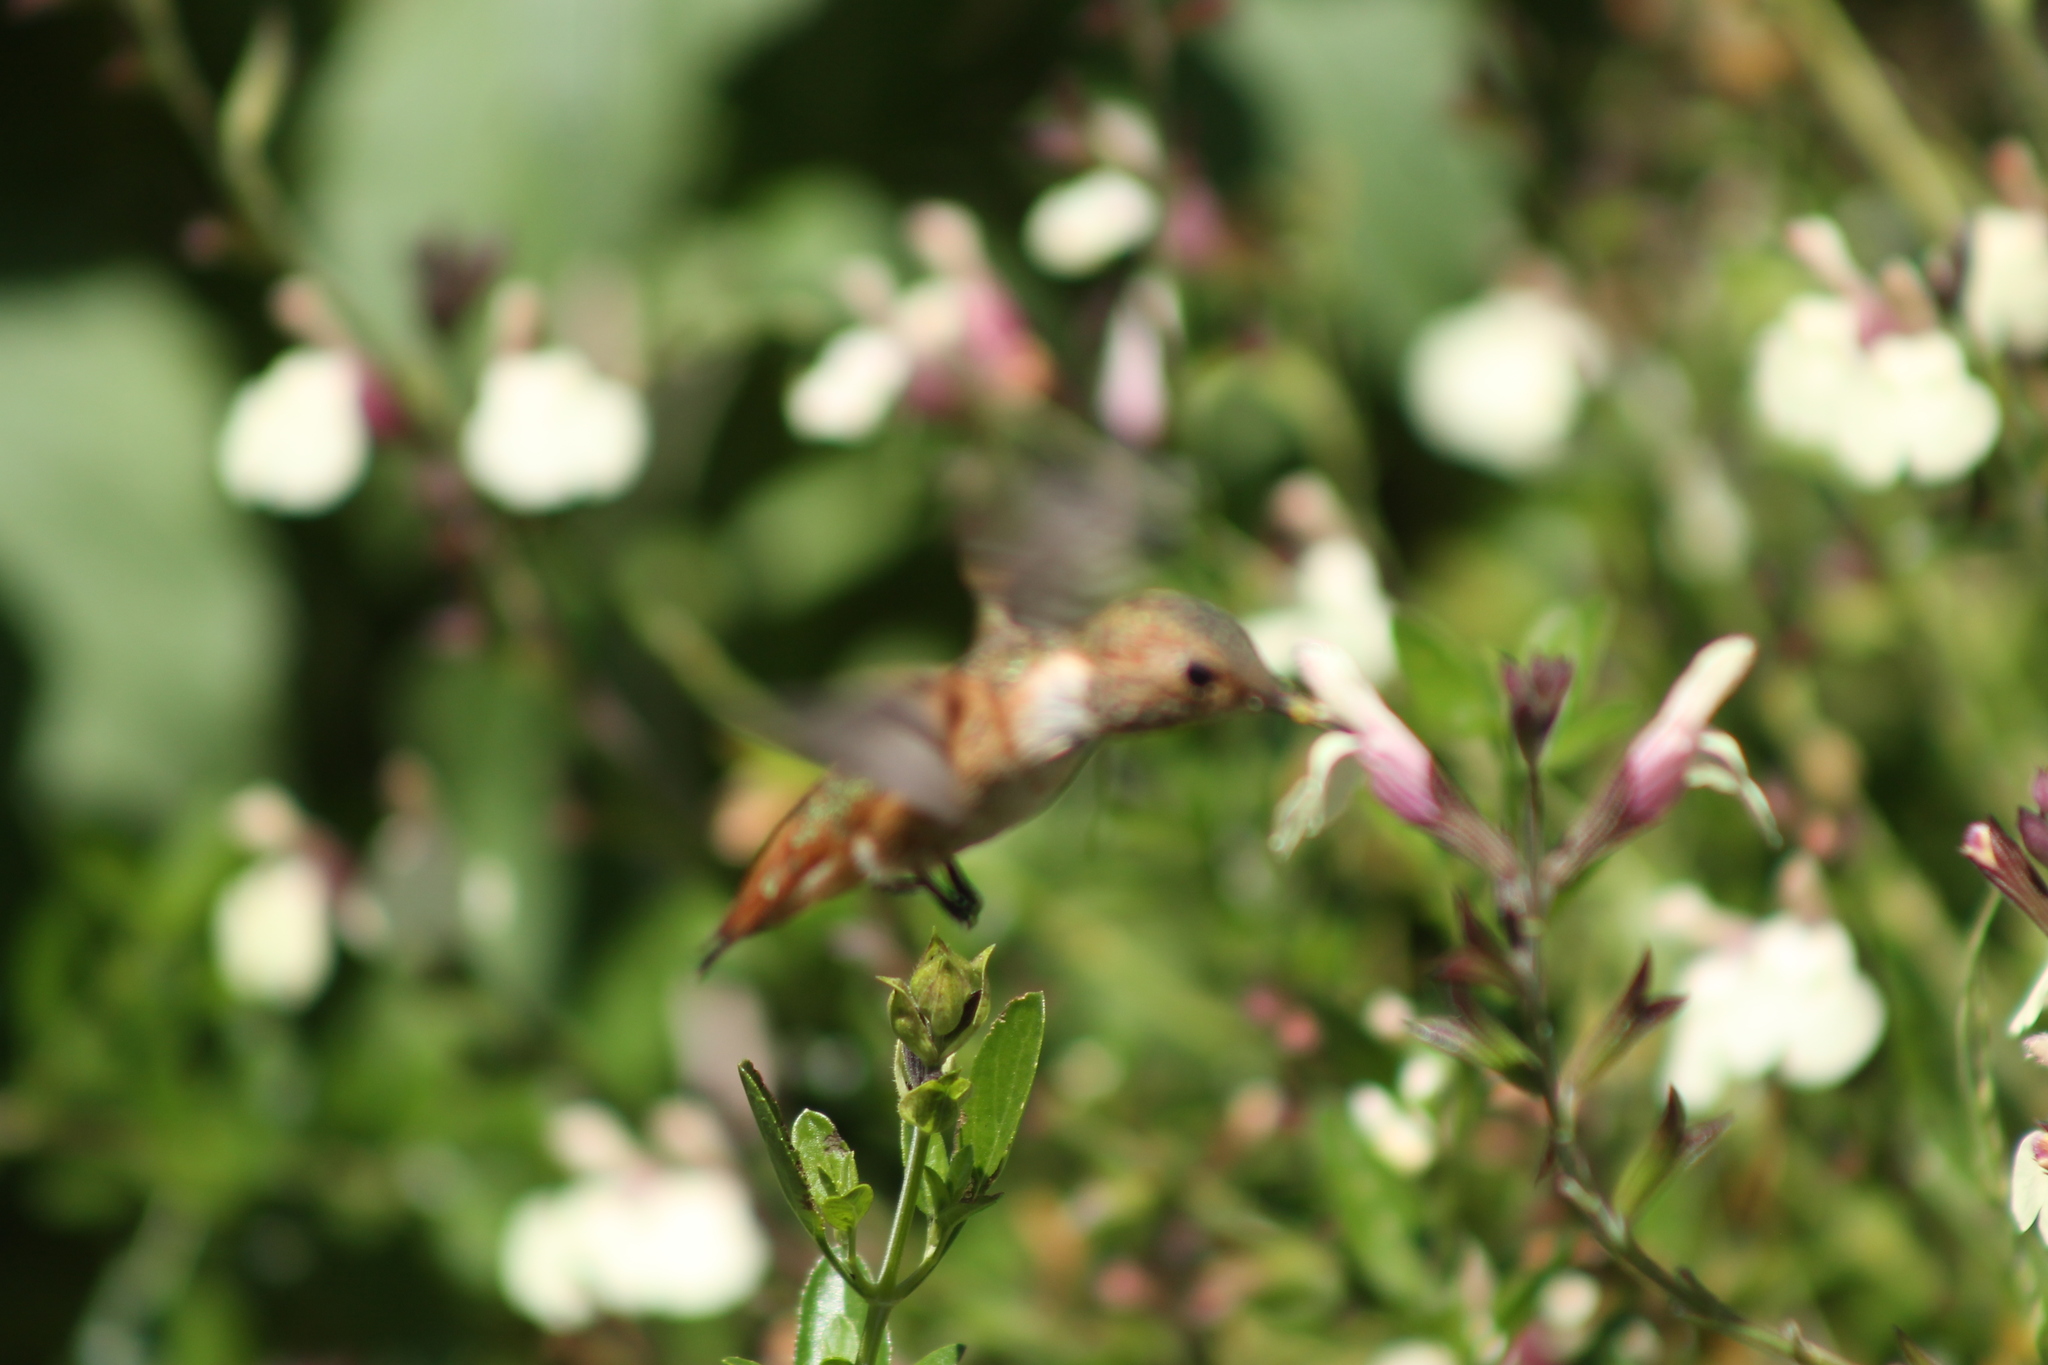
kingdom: Animalia
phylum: Chordata
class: Aves
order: Apodiformes
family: Trochilidae
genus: Selasphorus
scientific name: Selasphorus rufus
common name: Rufous hummingbird
